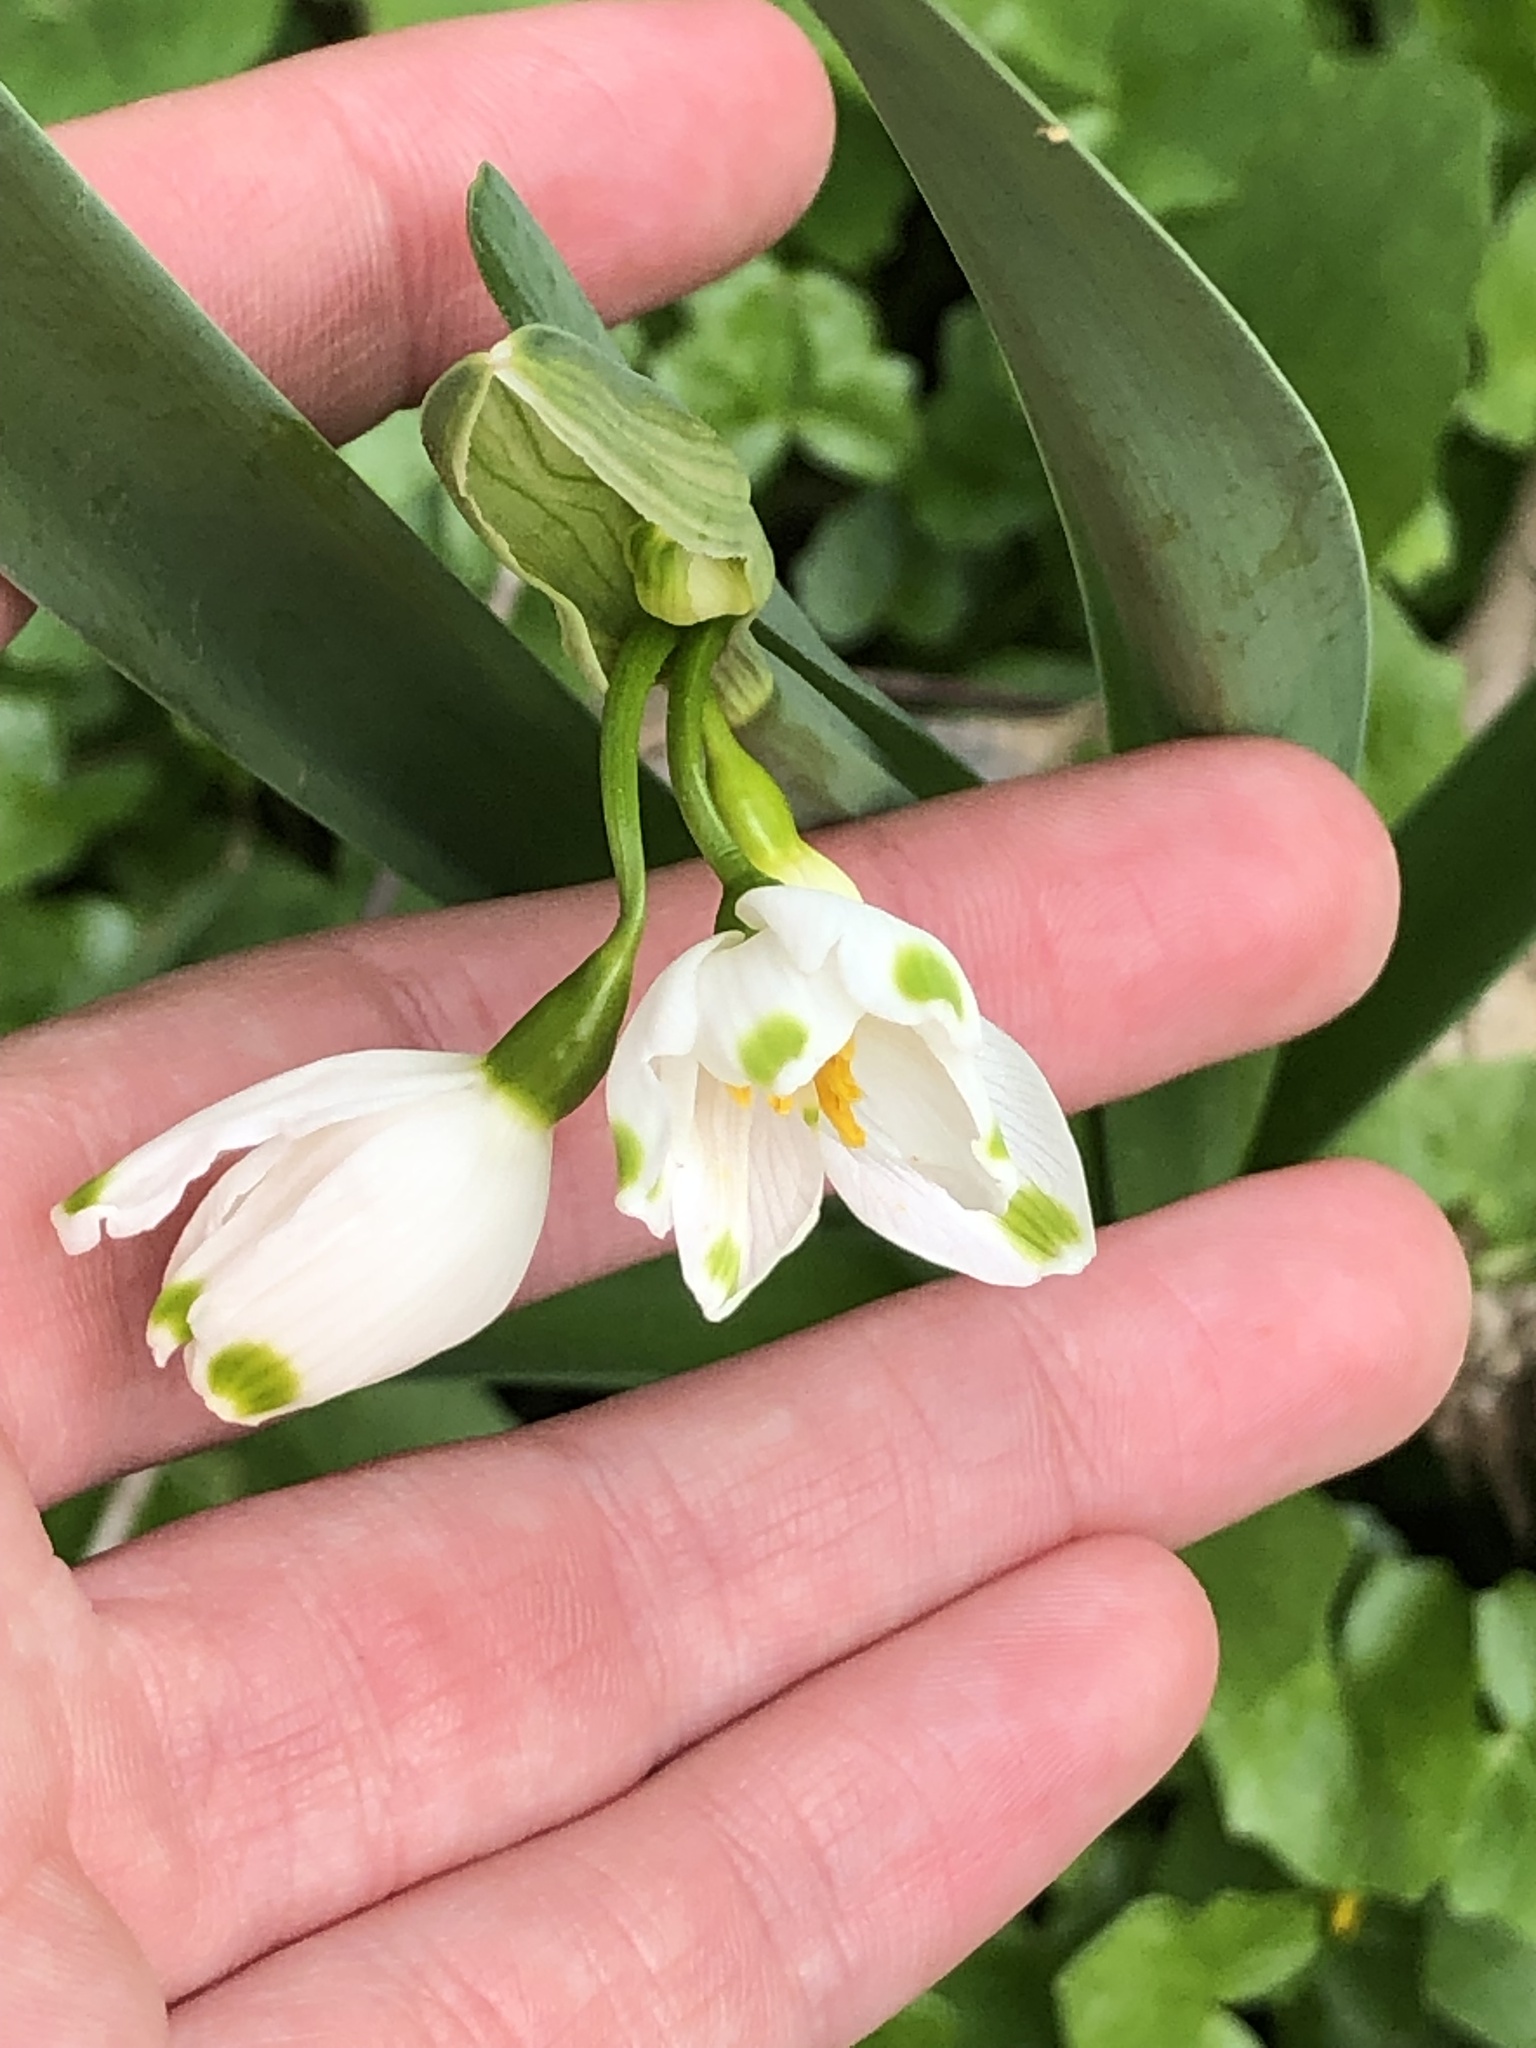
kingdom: Plantae
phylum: Tracheophyta
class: Liliopsida
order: Asparagales
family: Amaryllidaceae
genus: Leucojum
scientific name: Leucojum aestivum
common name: Summer snowflake
